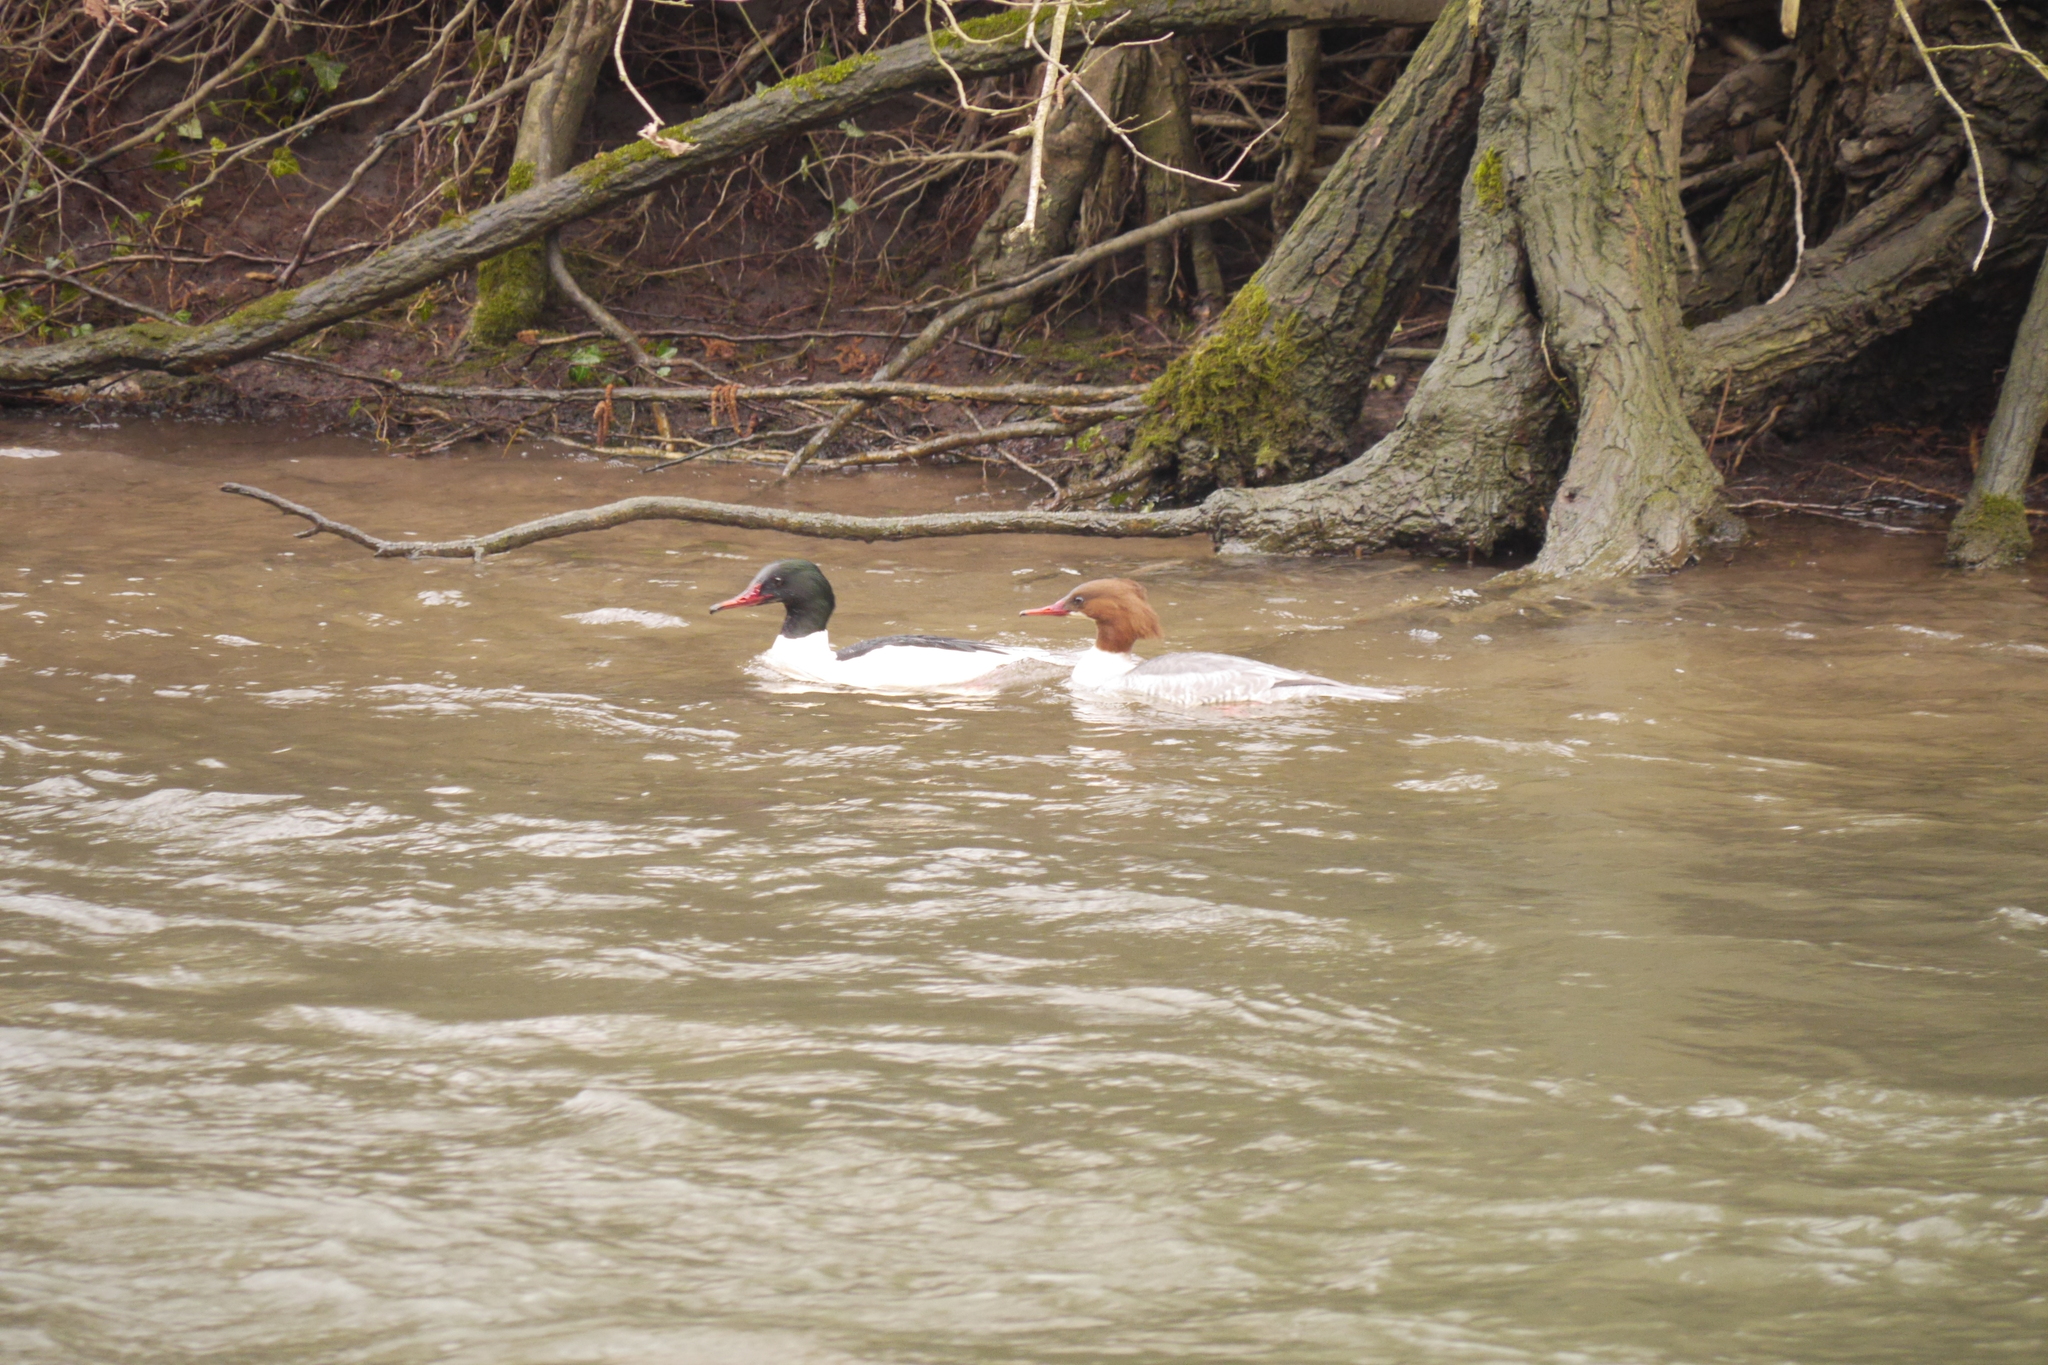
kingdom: Animalia
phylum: Chordata
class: Aves
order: Anseriformes
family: Anatidae
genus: Mergus
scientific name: Mergus merganser
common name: Common merganser
